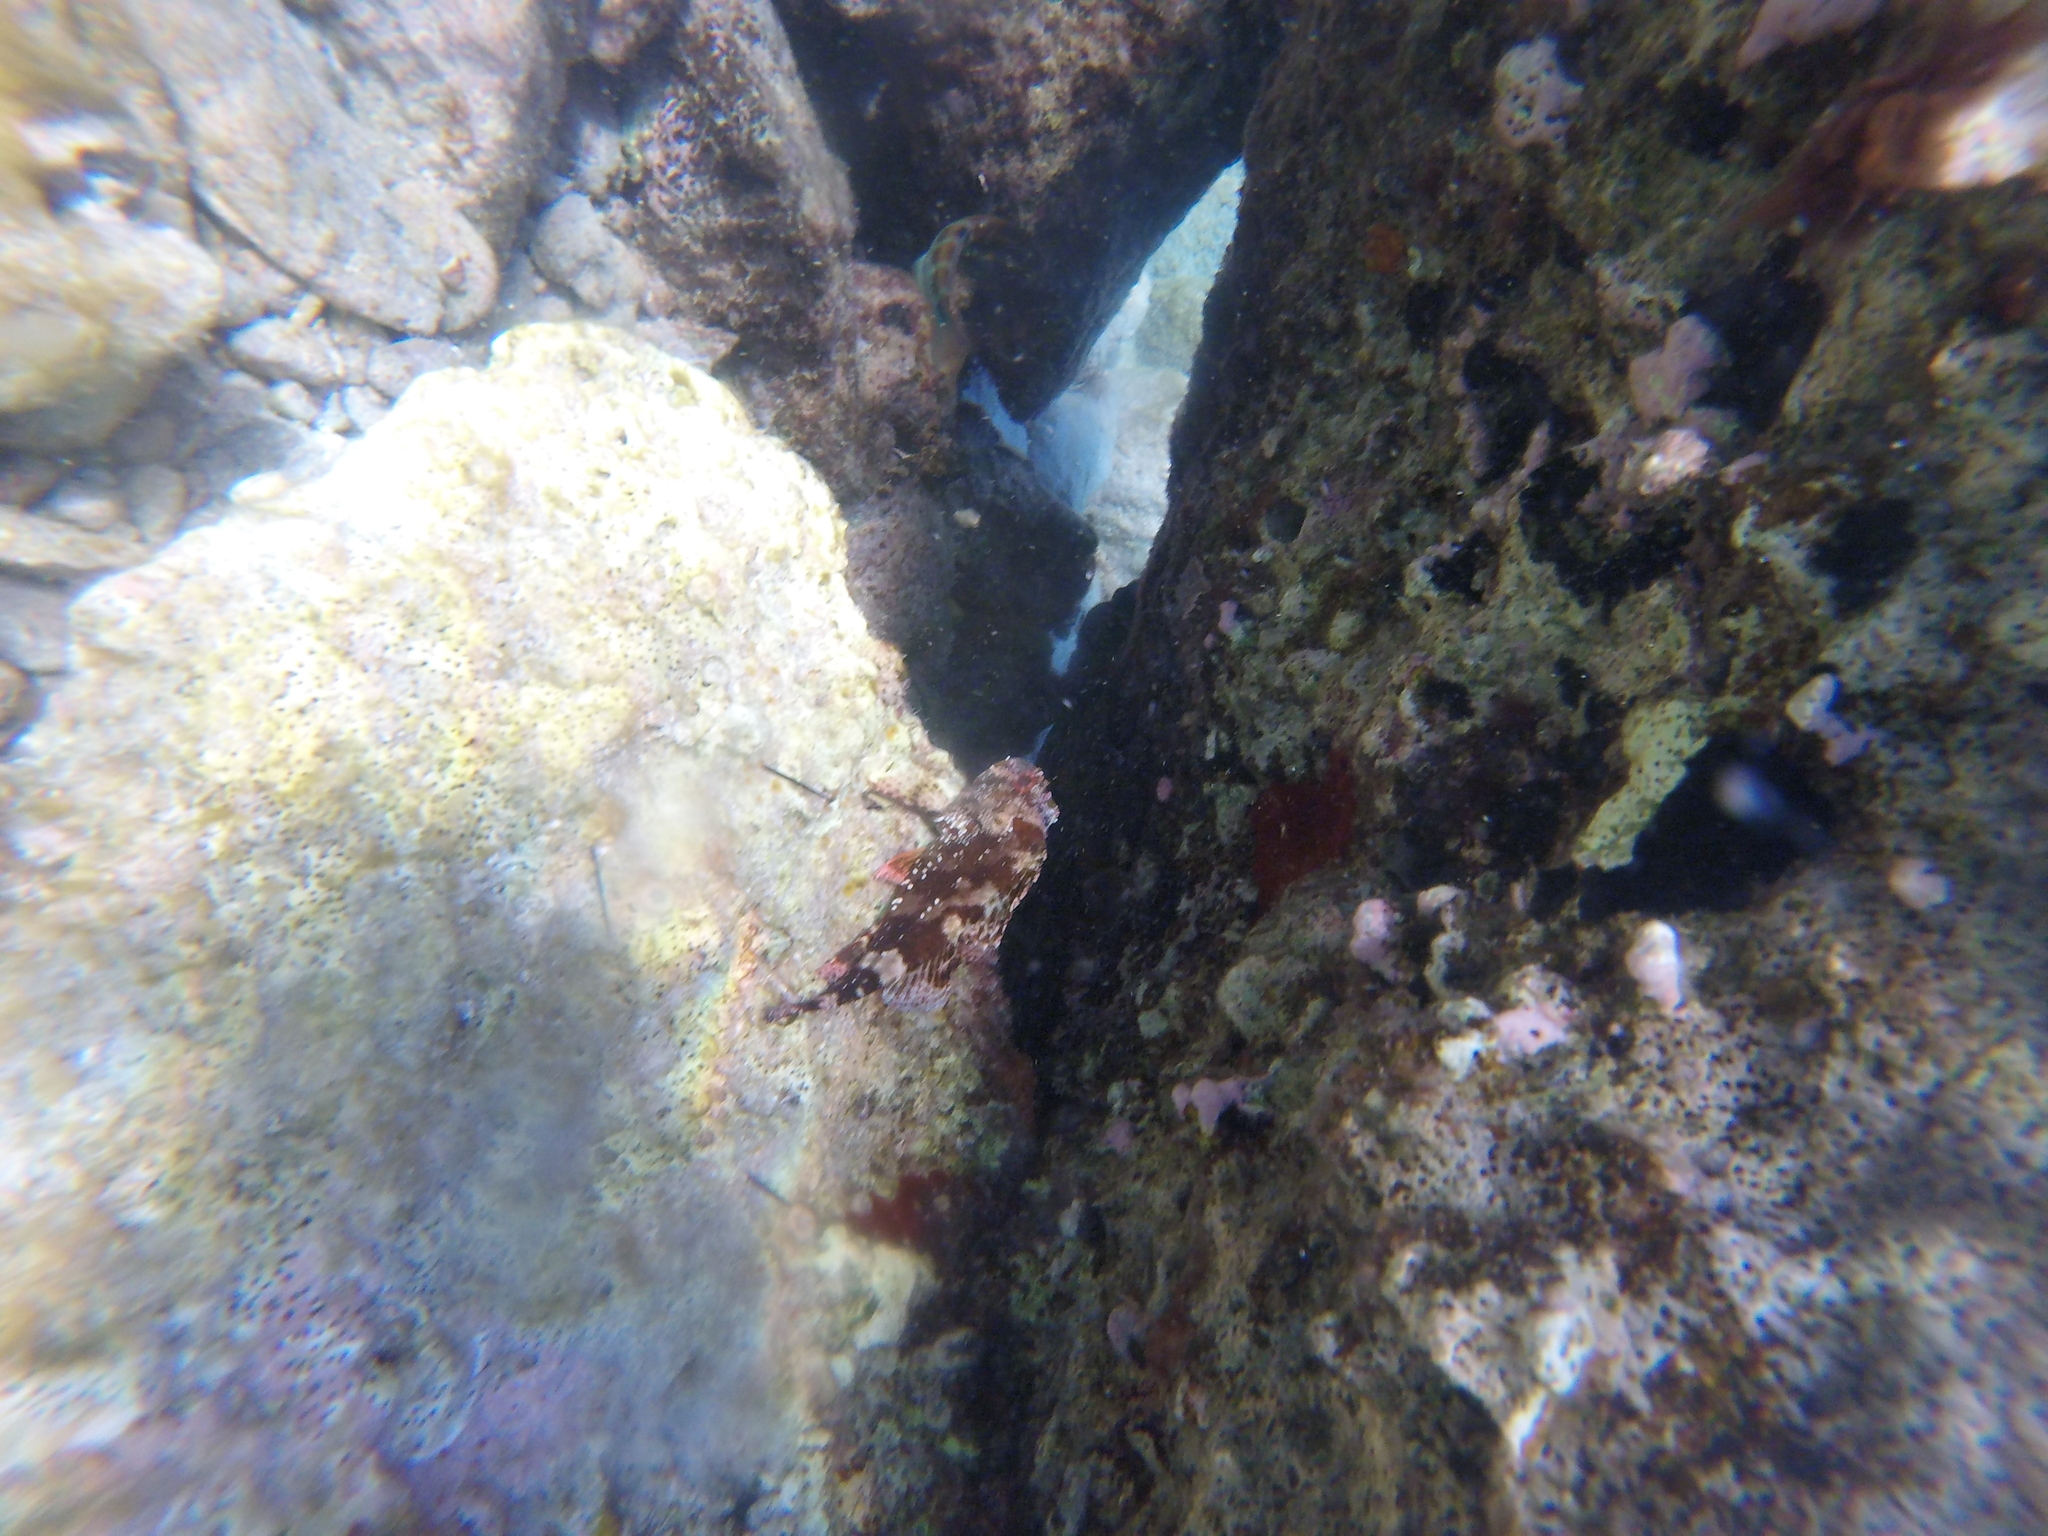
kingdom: Animalia
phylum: Chordata
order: Scorpaeniformes
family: Scorpaenidae
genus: Scorpaena
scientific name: Scorpaena maderensis
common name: Madeira rockfish
